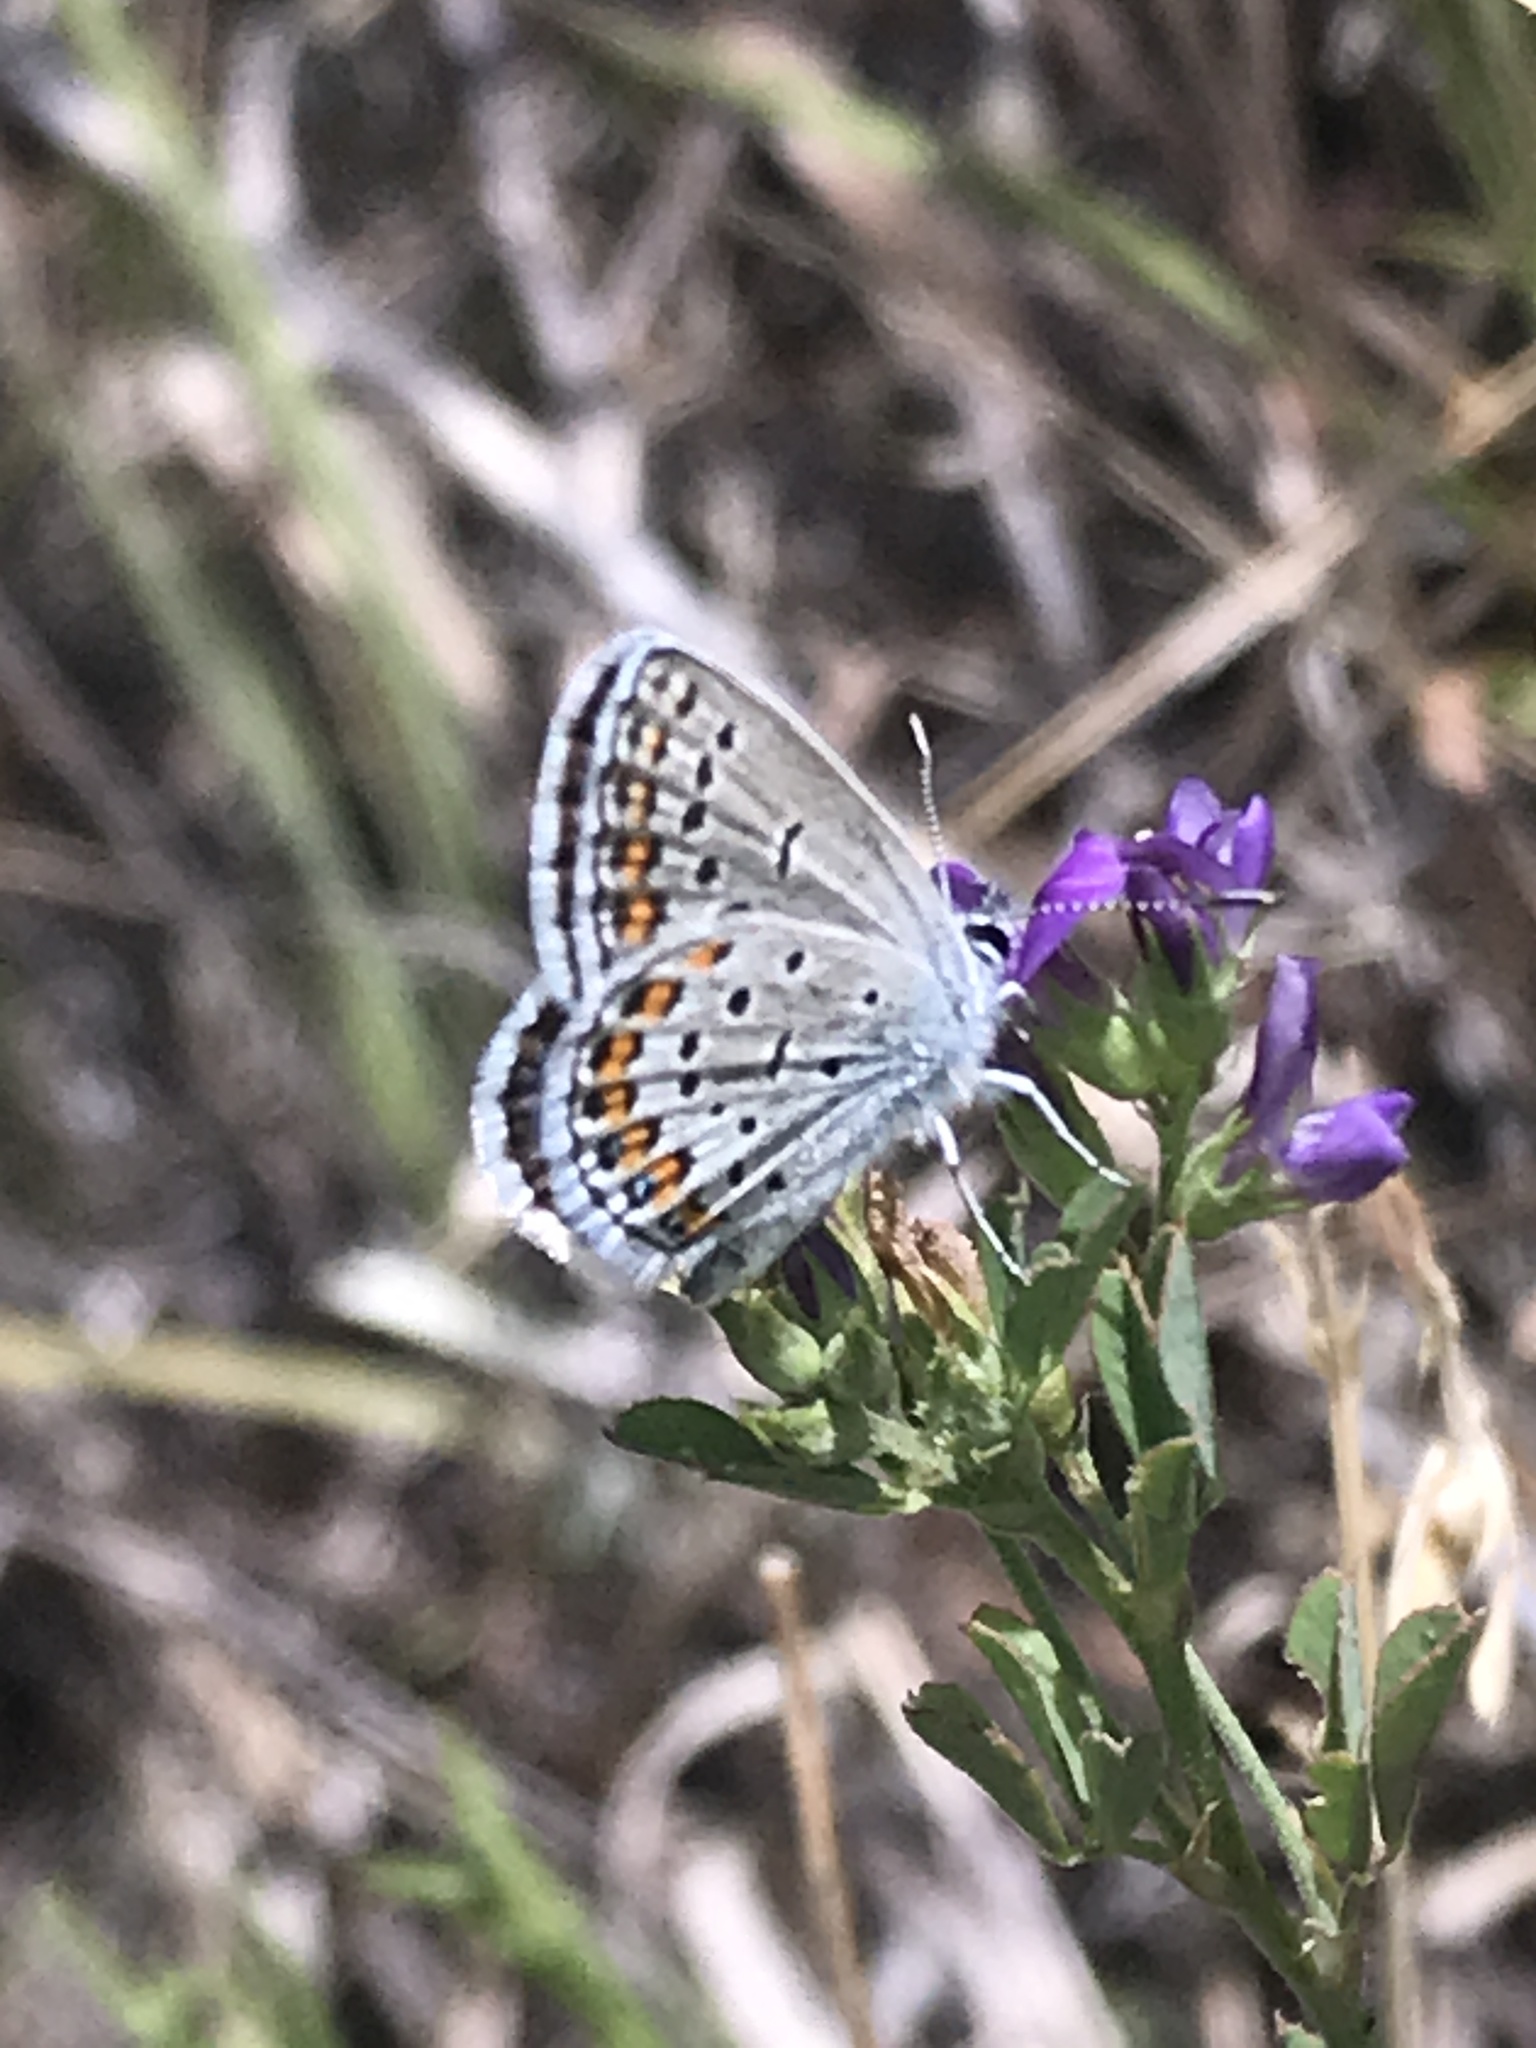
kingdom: Animalia
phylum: Arthropoda
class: Insecta
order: Lepidoptera
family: Lycaenidae
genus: Lycaeides
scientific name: Lycaeides melissa
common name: Melissa blue
